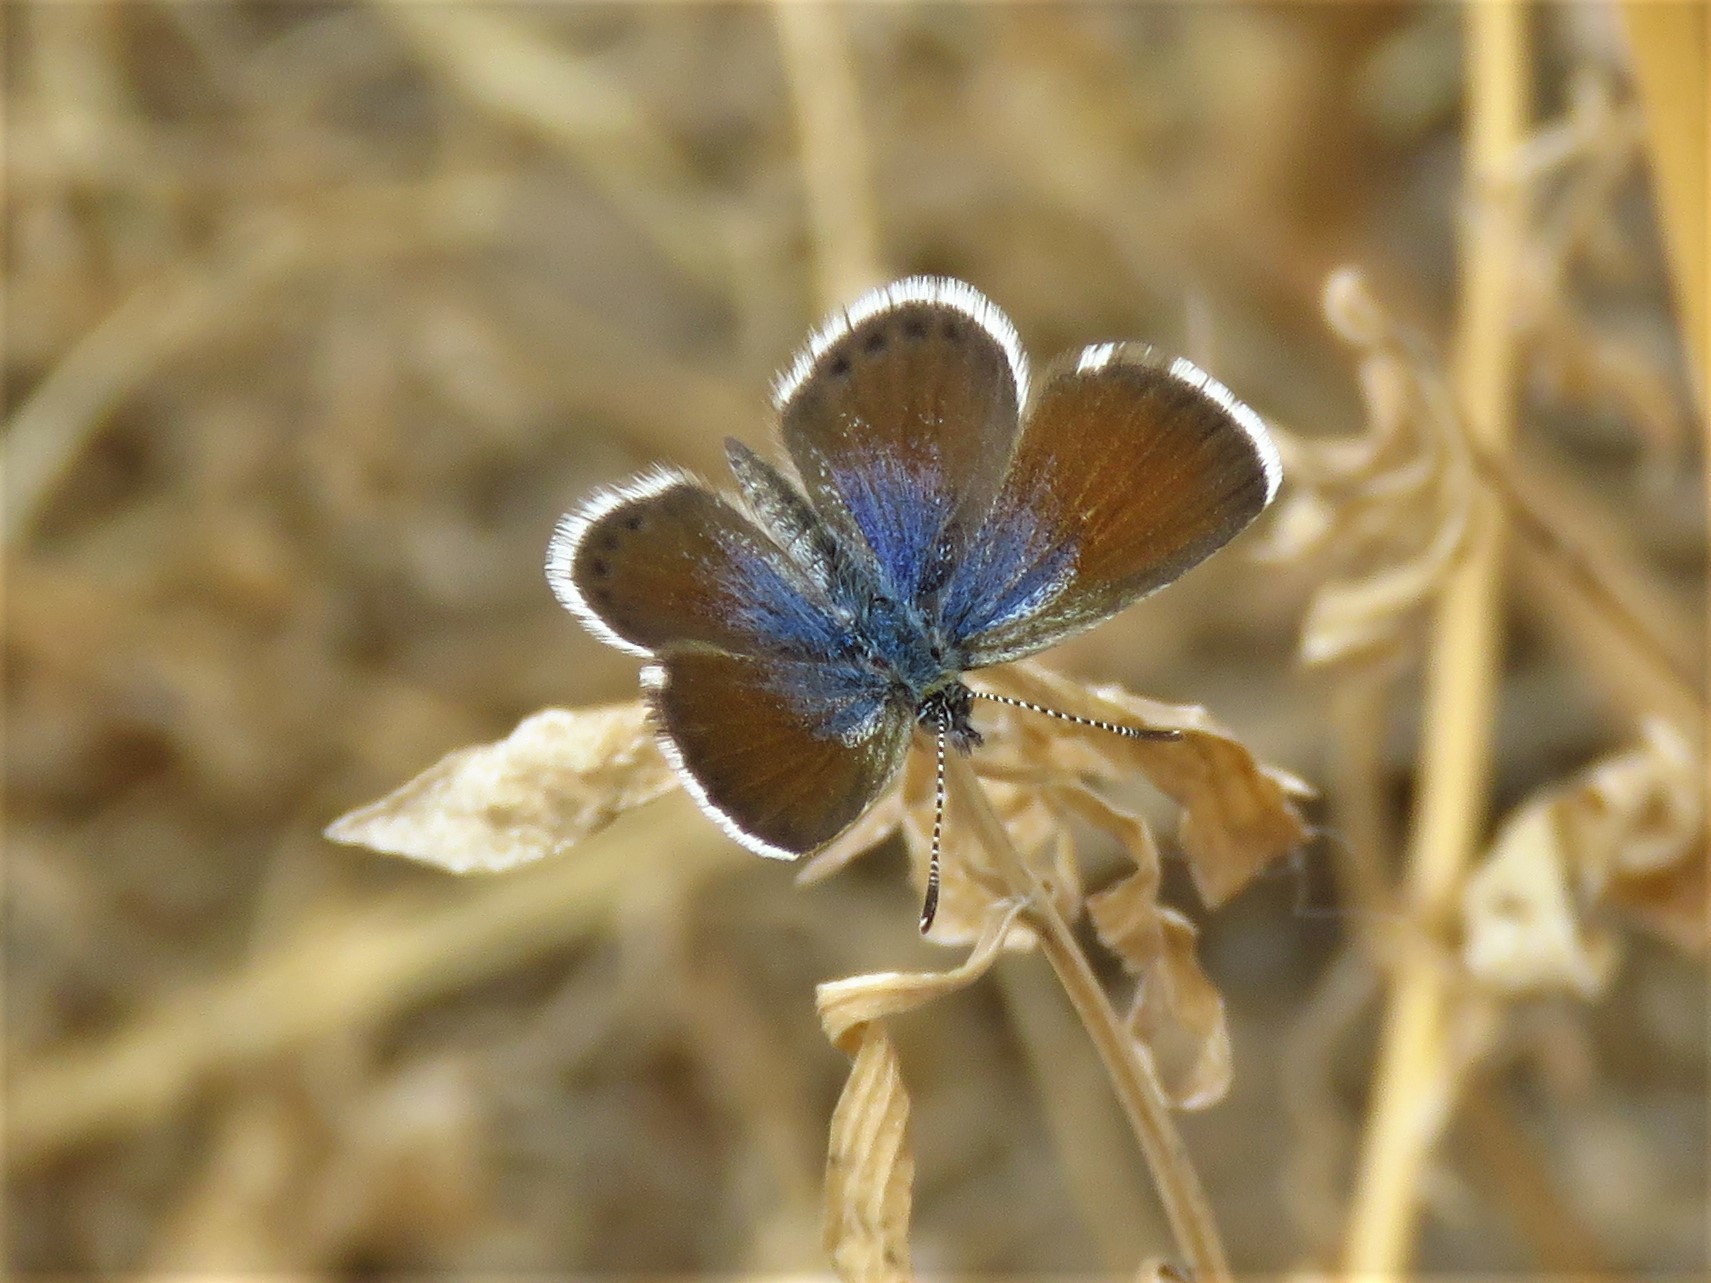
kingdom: Animalia
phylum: Arthropoda
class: Insecta
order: Lepidoptera
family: Lycaenidae
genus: Brephidium
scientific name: Brephidium exilis
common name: Pygmy blue
